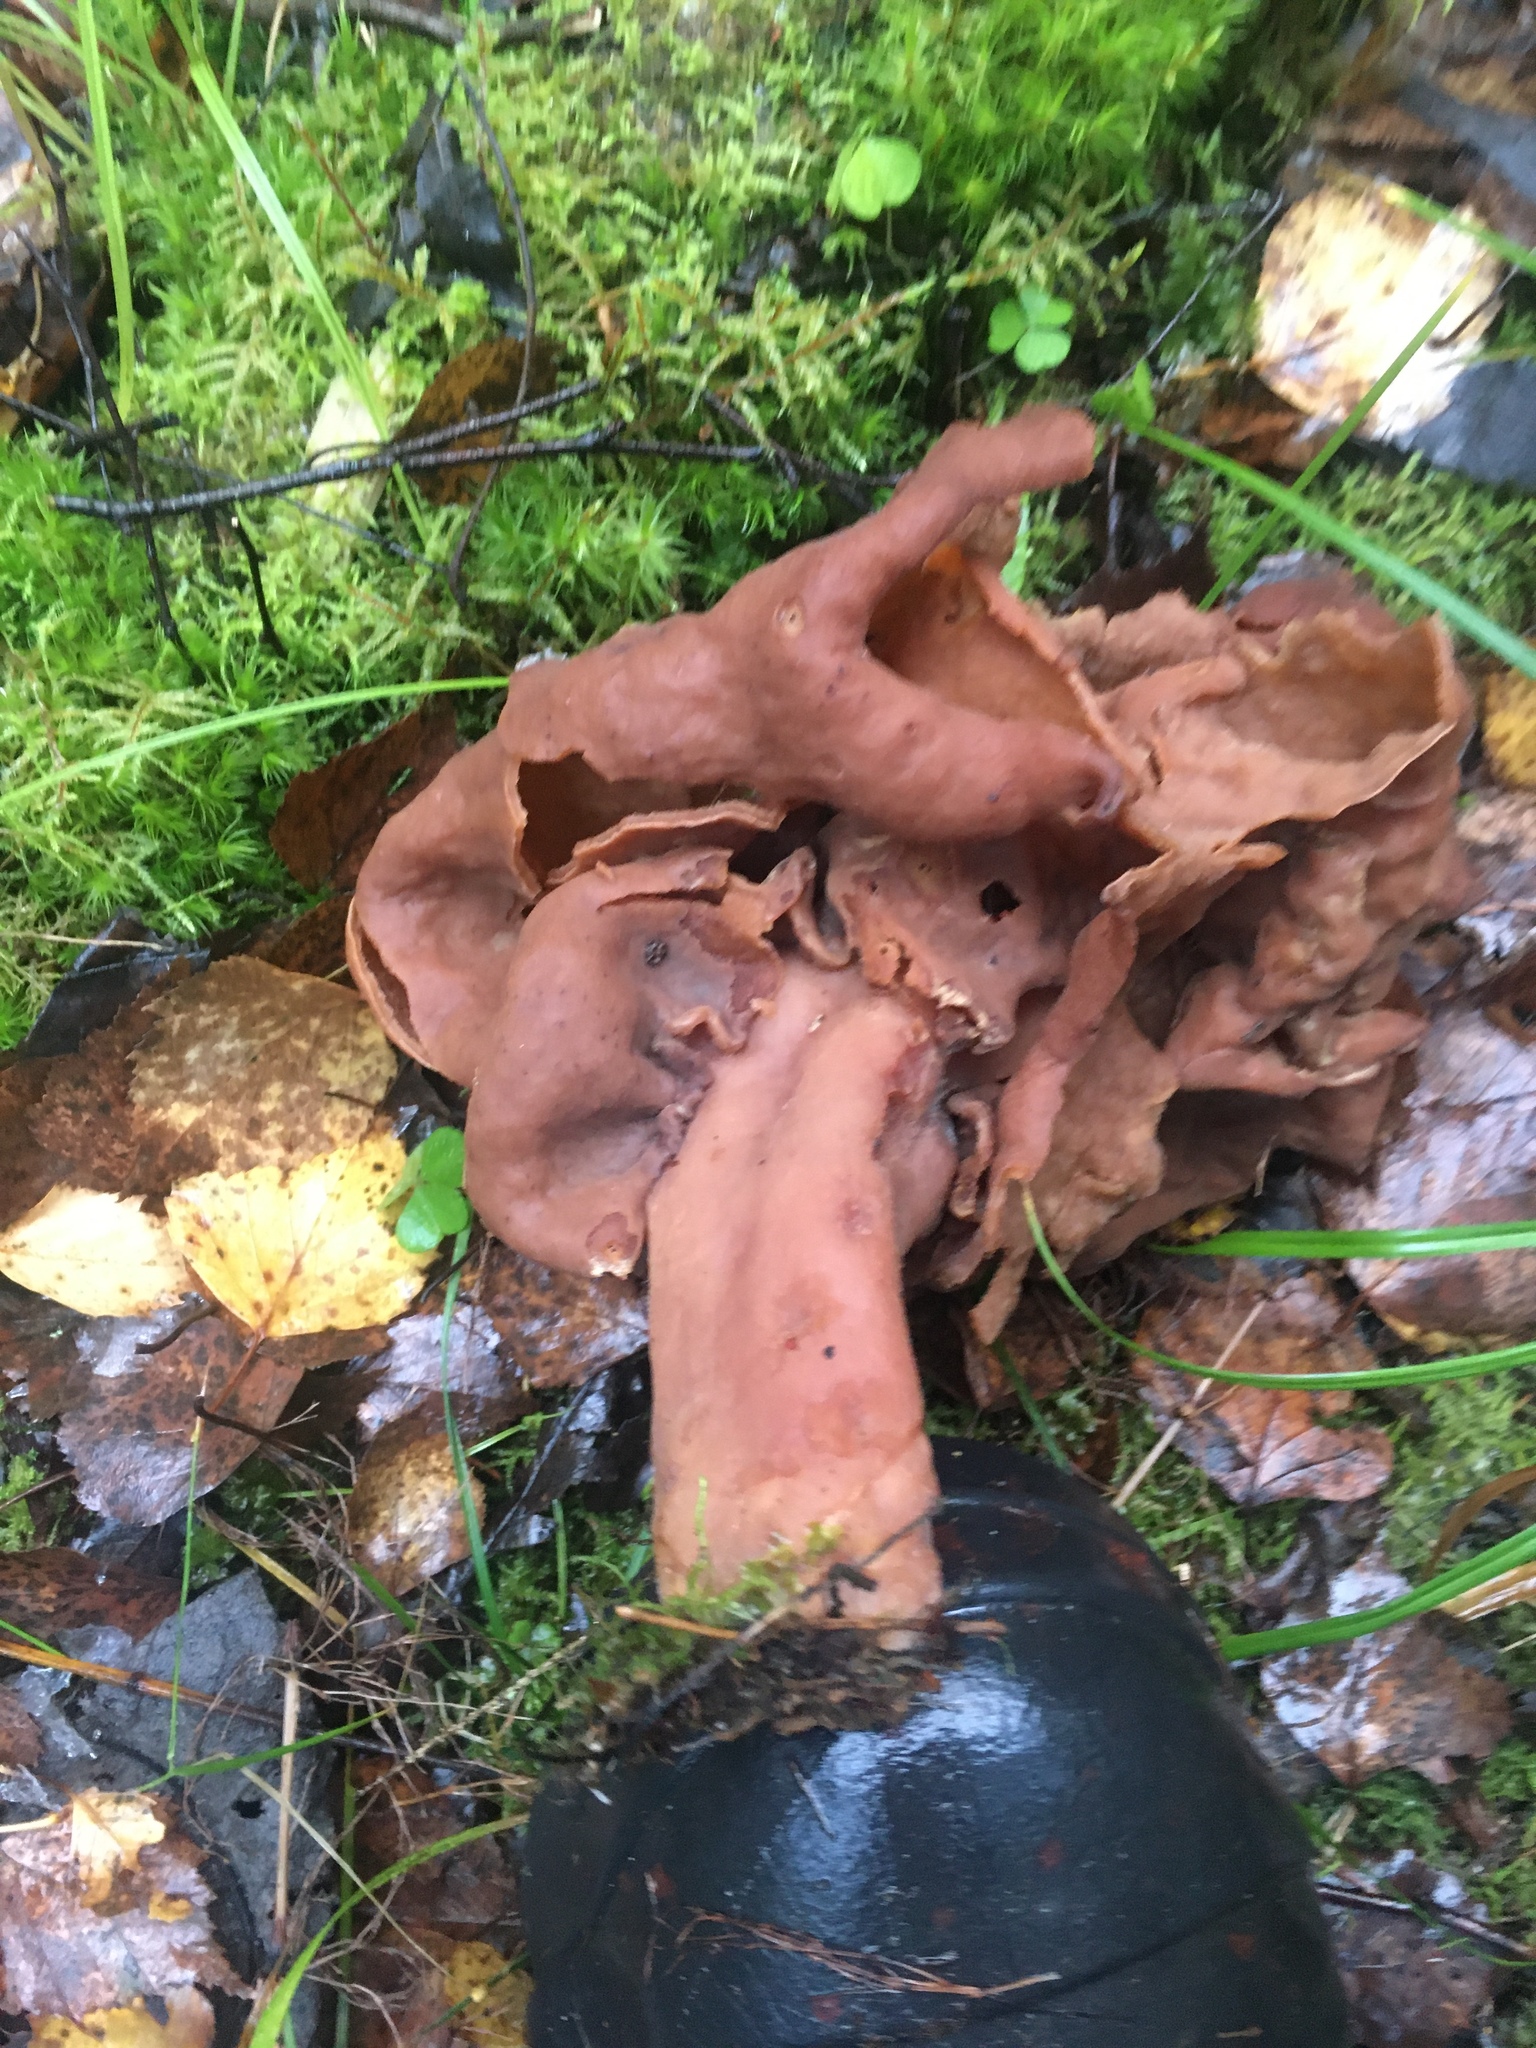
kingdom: Fungi
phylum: Ascomycota
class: Pezizomycetes
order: Pezizales
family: Discinaceae
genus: Gyromitra
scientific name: Gyromitra infula
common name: Pouched false morel
